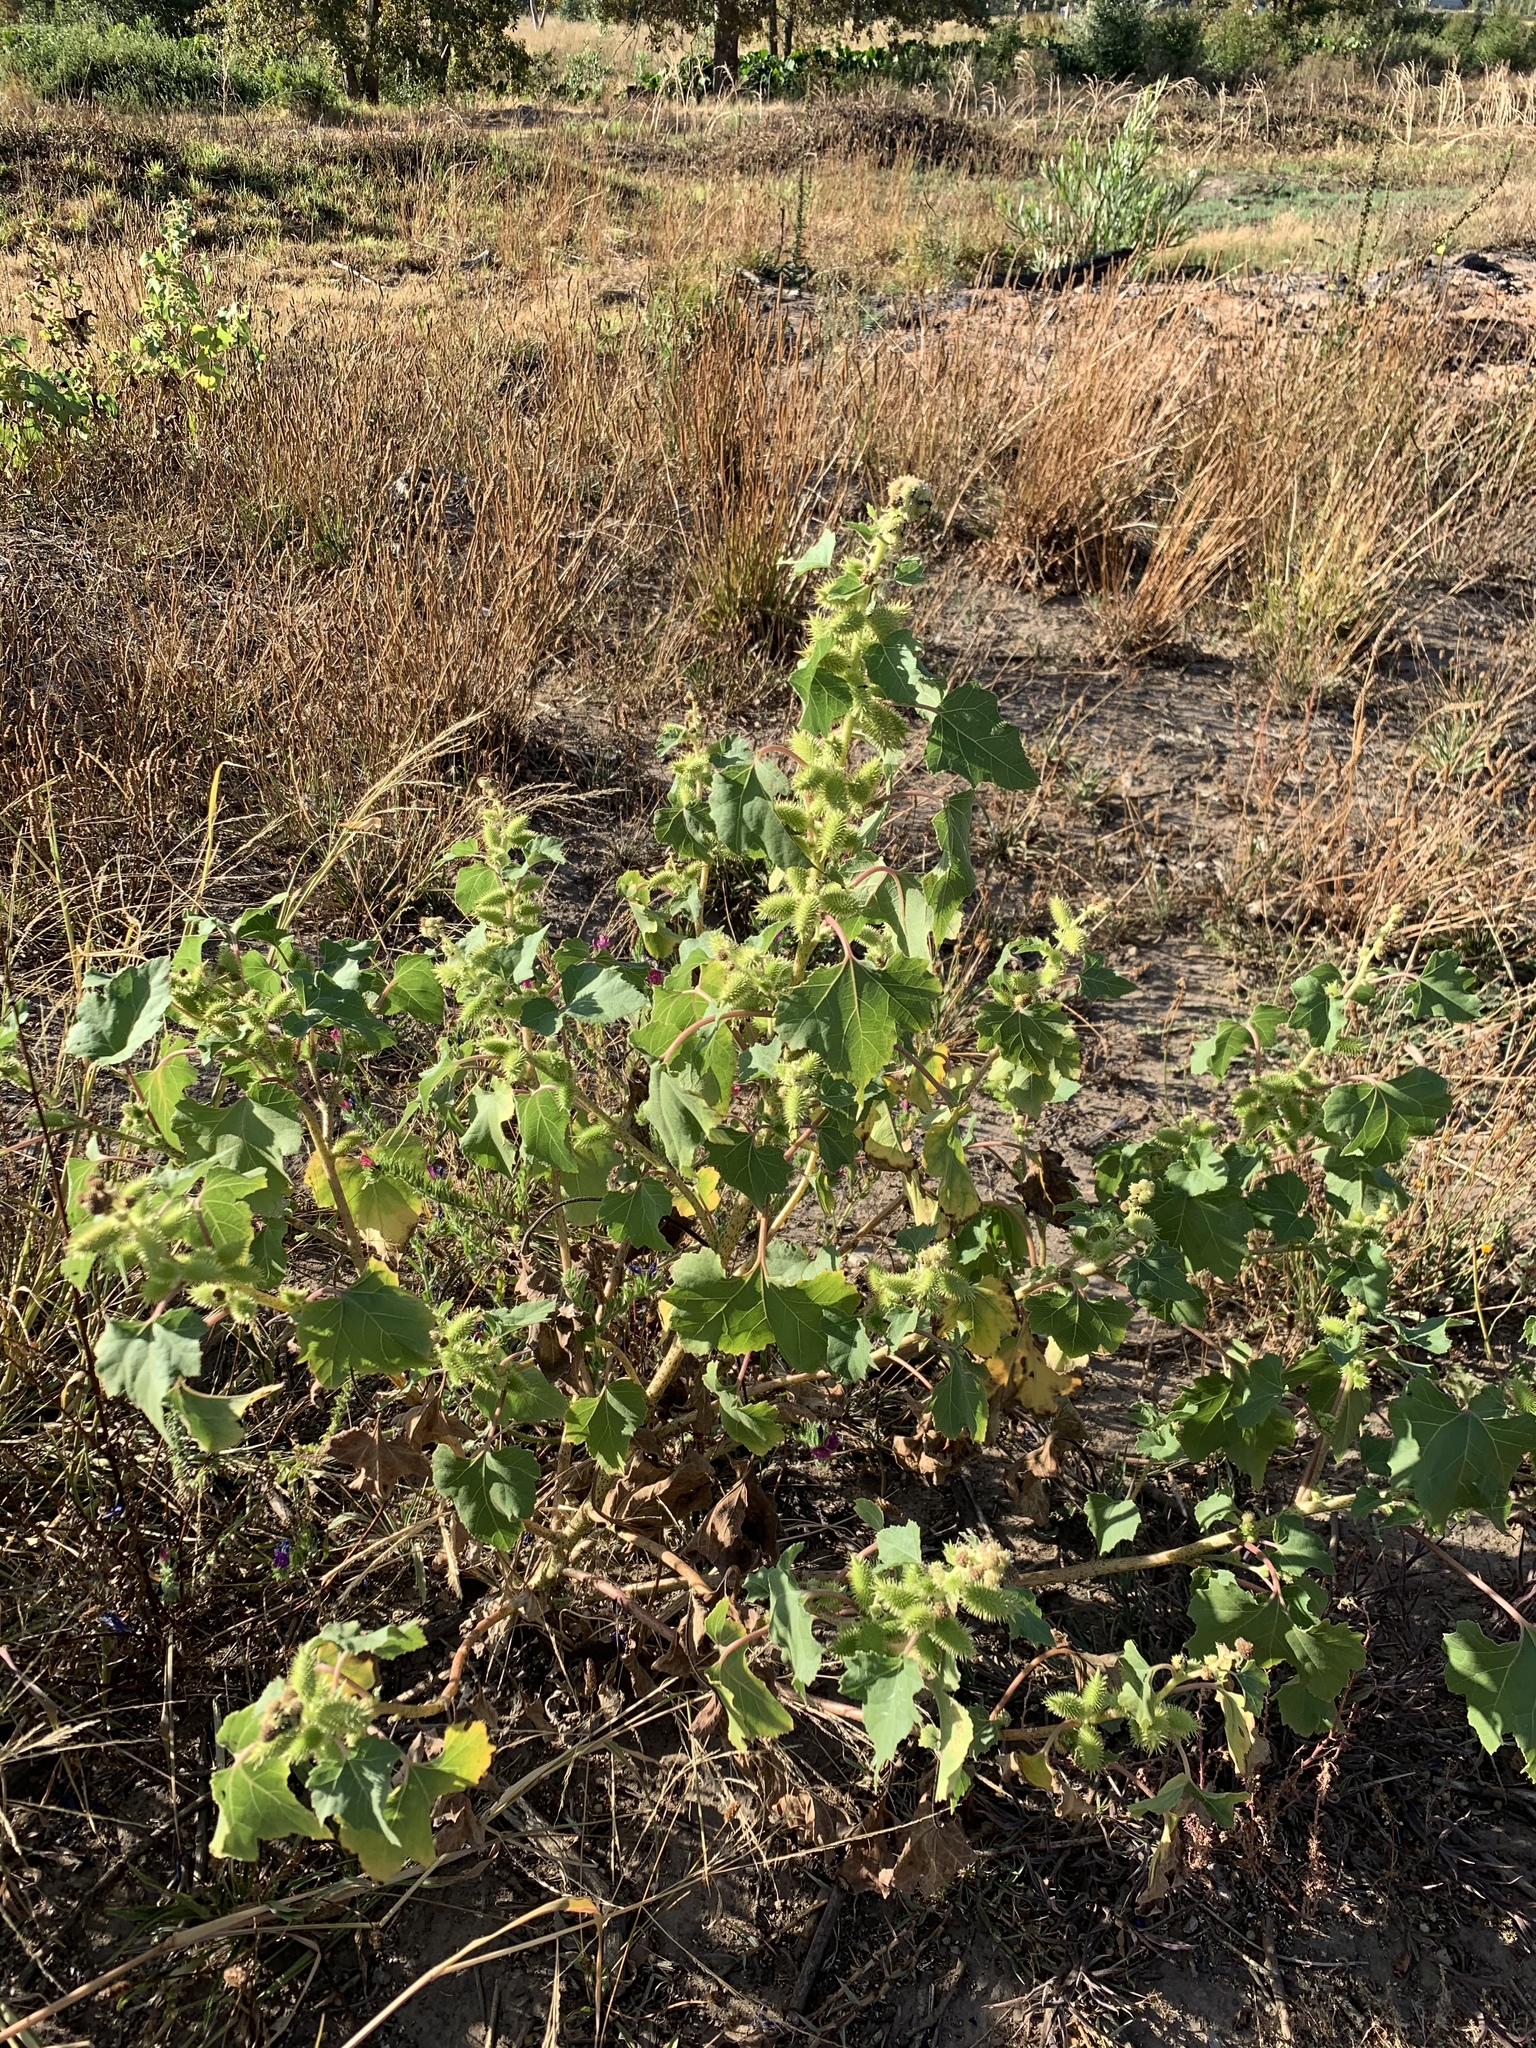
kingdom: Plantae
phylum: Tracheophyta
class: Magnoliopsida
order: Asterales
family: Asteraceae
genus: Xanthium
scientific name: Xanthium strumarium
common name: Rough cocklebur
